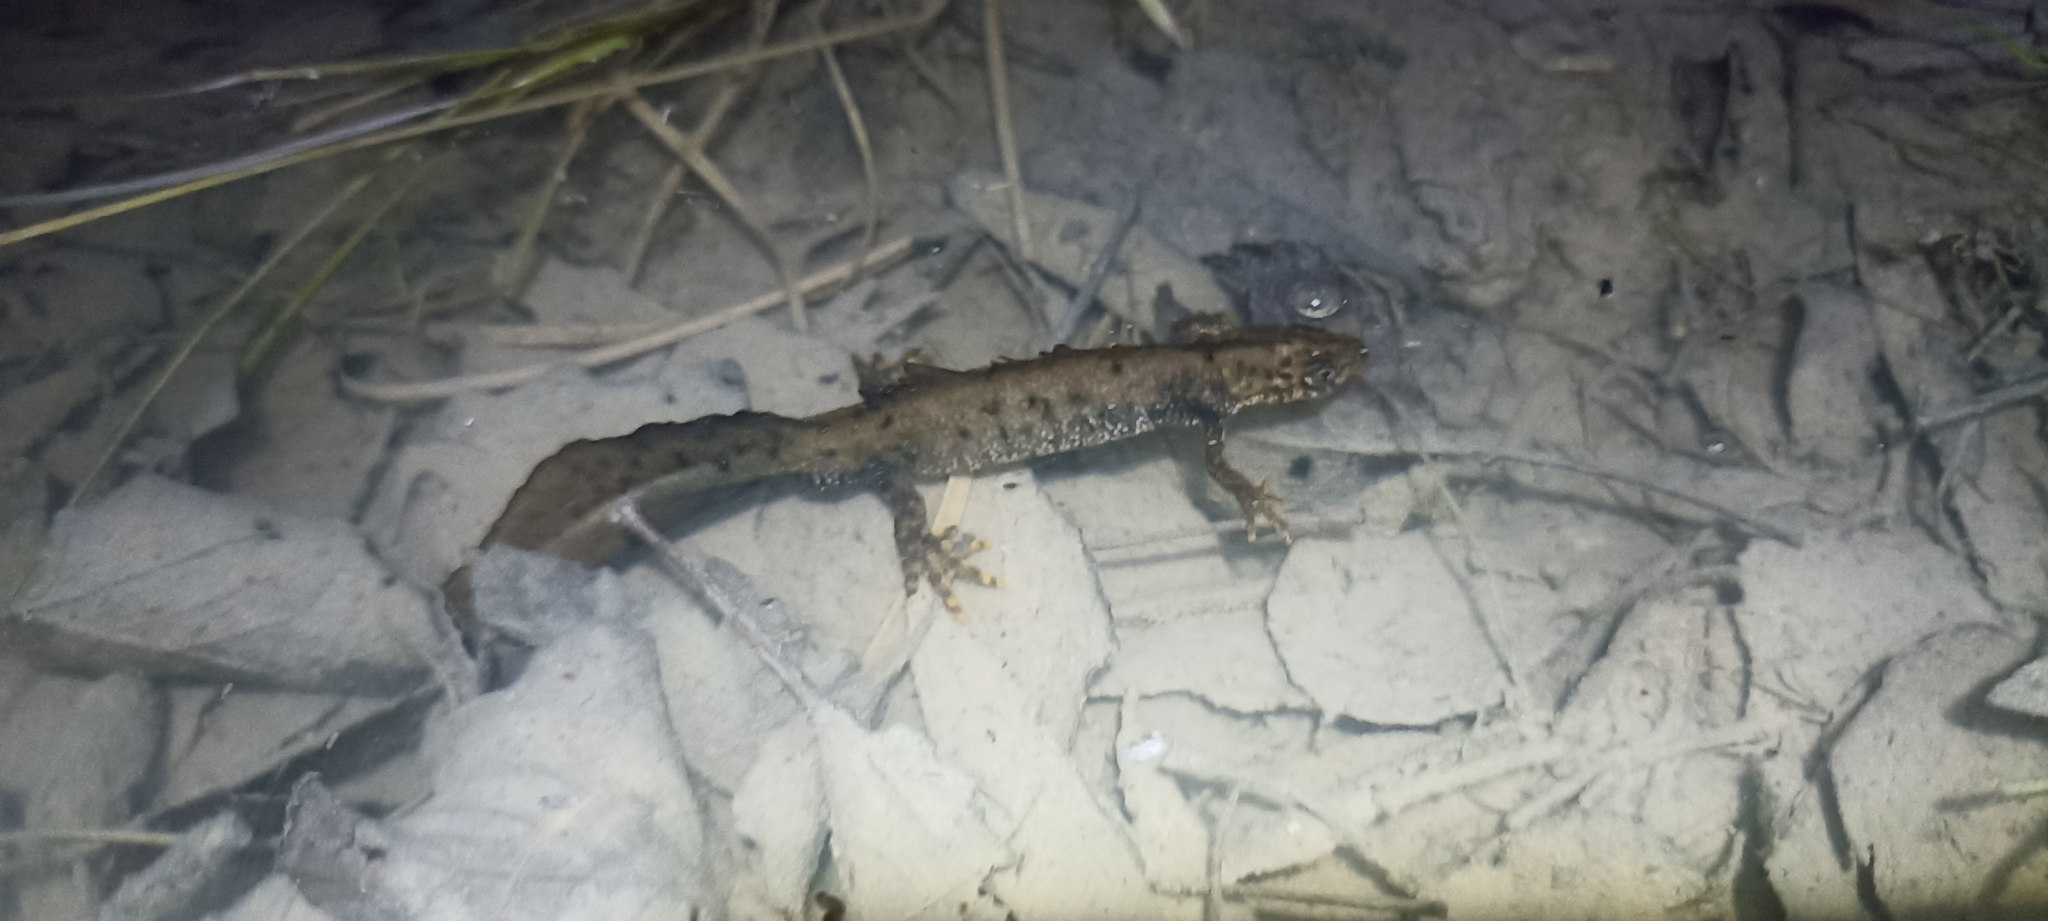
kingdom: Animalia
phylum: Chordata
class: Amphibia
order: Caudata
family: Salamandridae
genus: Triturus
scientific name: Triturus cristatus
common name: Crested newt
